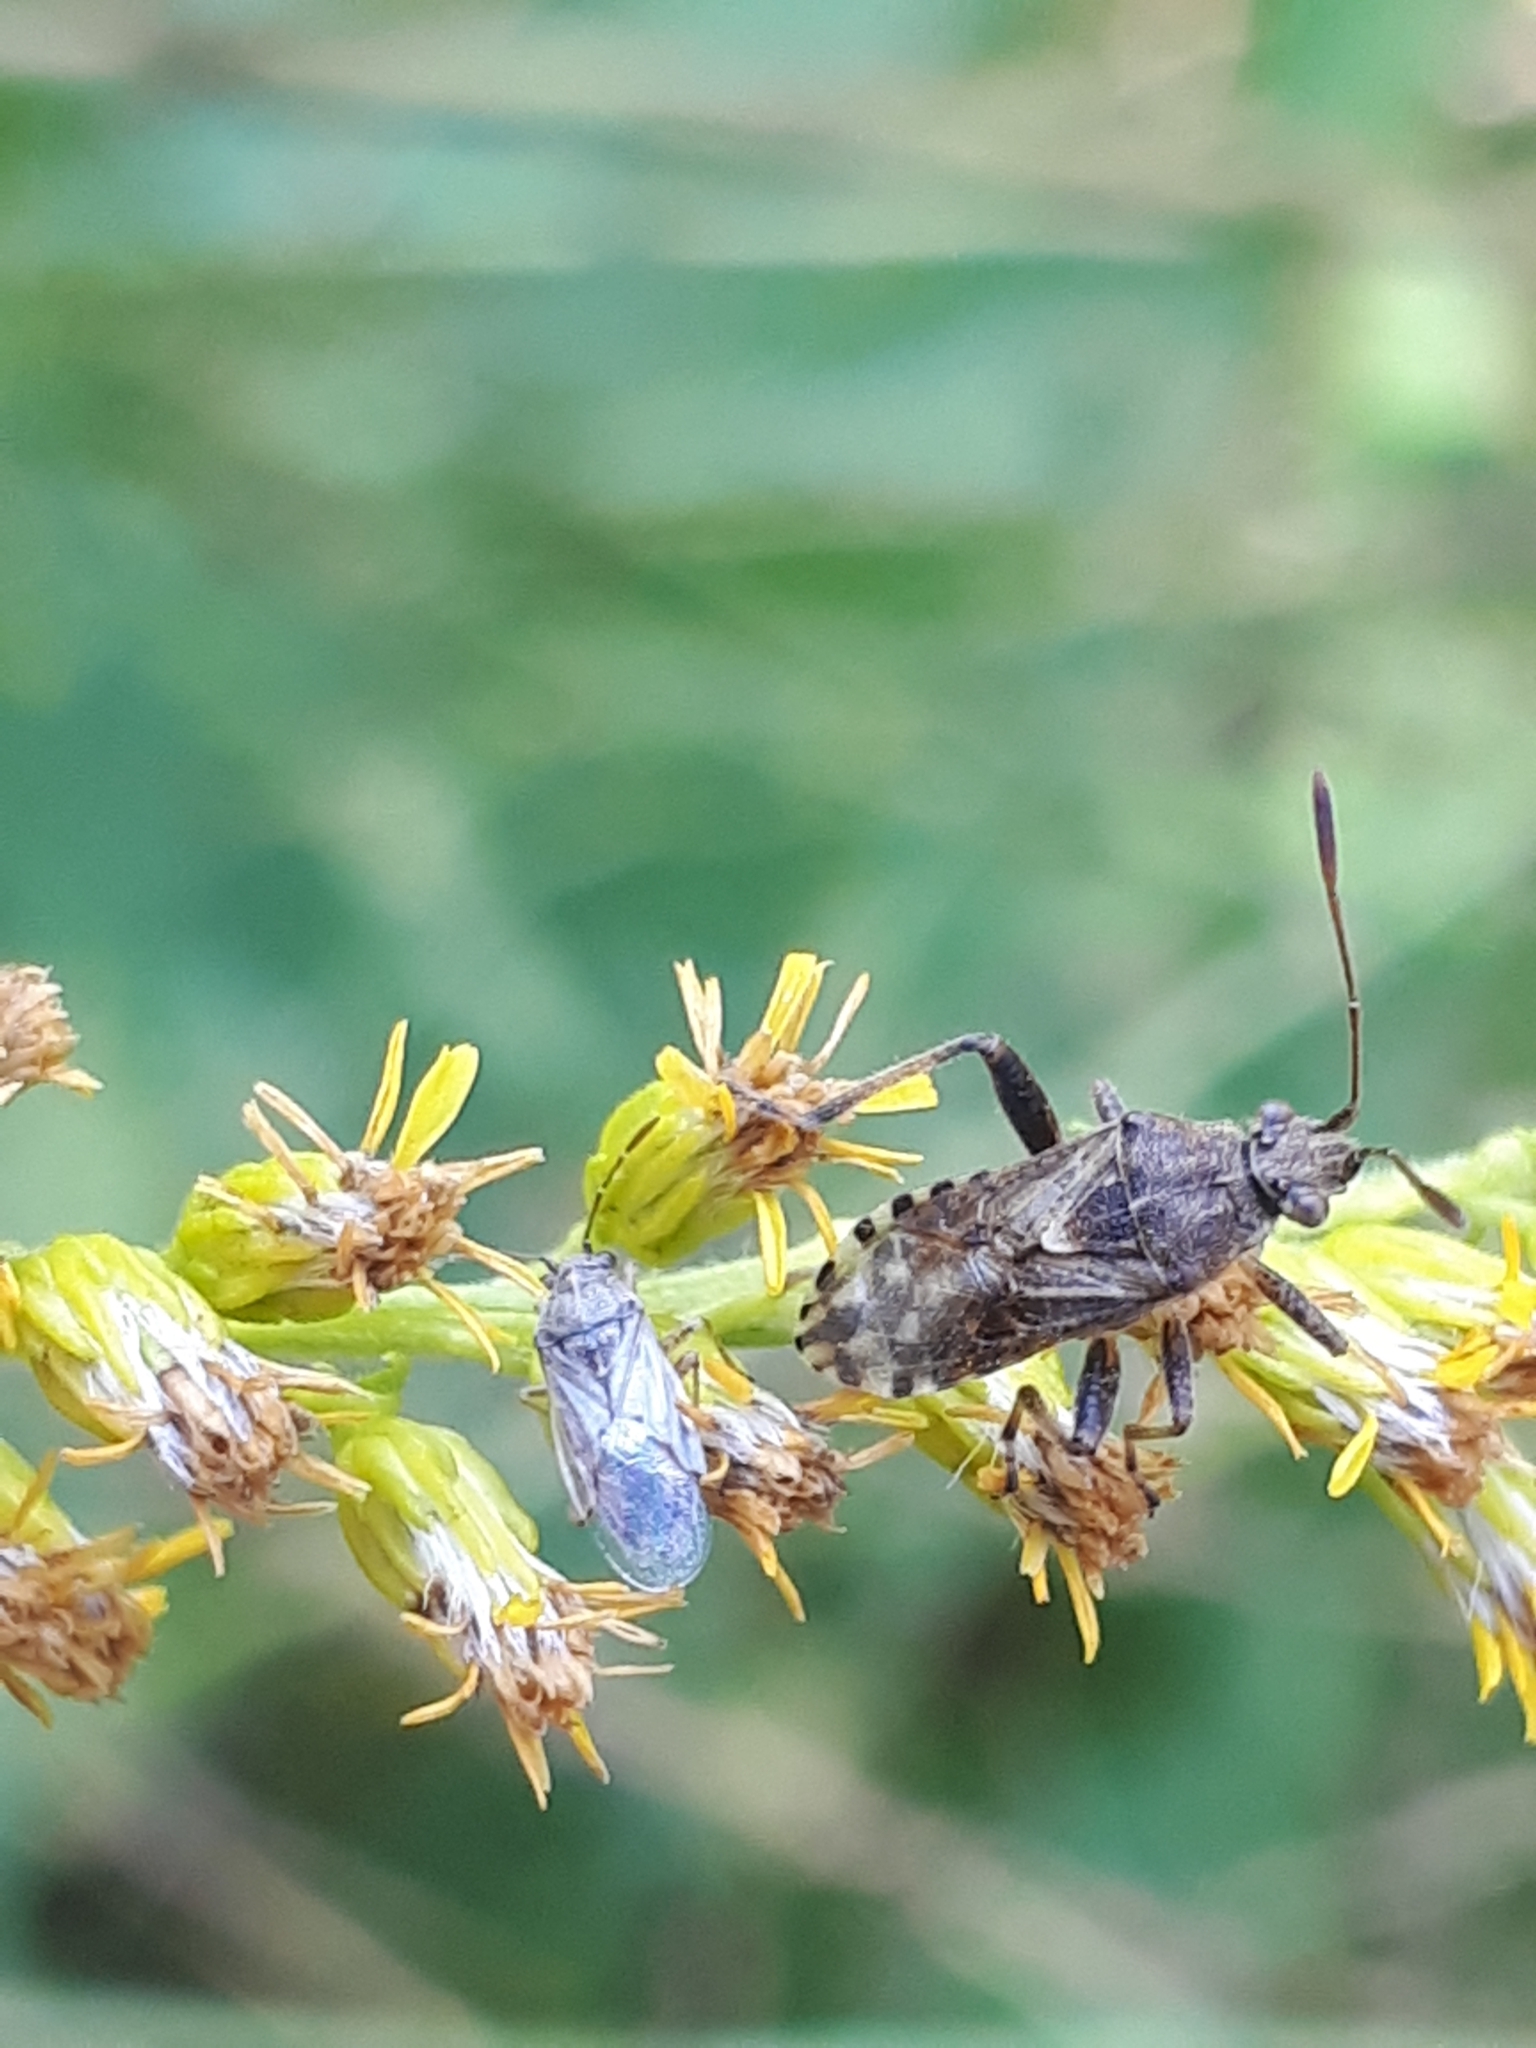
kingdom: Animalia
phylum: Arthropoda
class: Insecta
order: Hemiptera
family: Rhopalidae
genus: Stictopleurus
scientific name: Stictopleurus punctatonervosus
